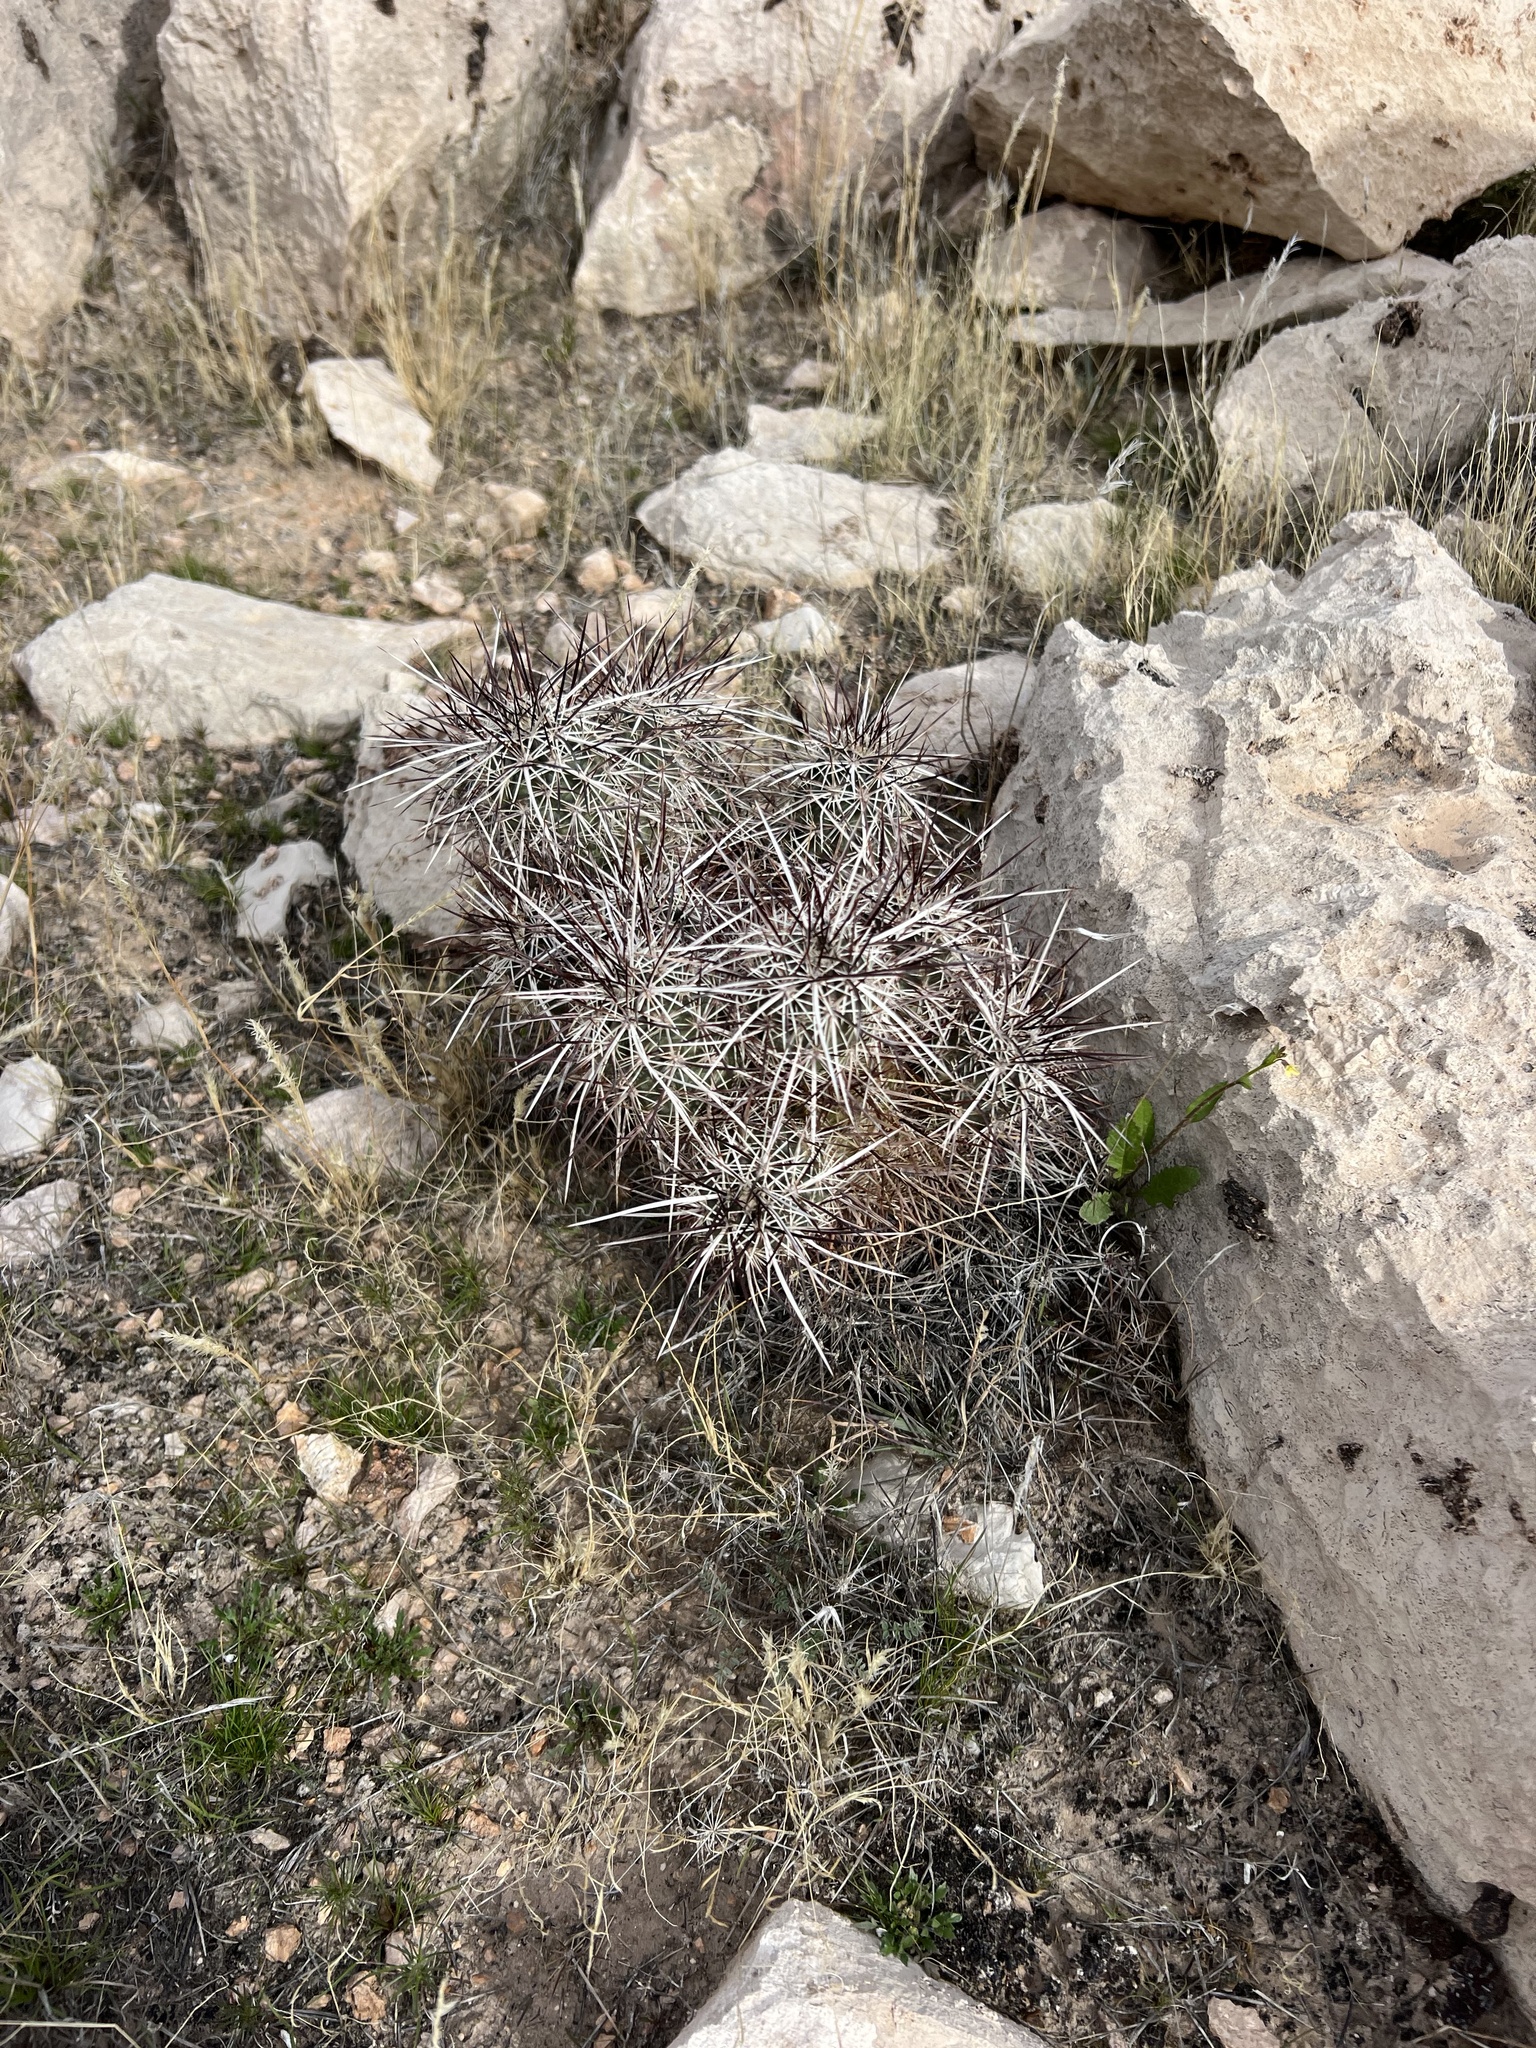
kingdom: Plantae
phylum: Tracheophyta
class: Magnoliopsida
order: Caryophyllales
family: Cactaceae
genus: Echinocereus
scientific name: Echinocereus engelmannii
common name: Engelmann's hedgehog cactus
